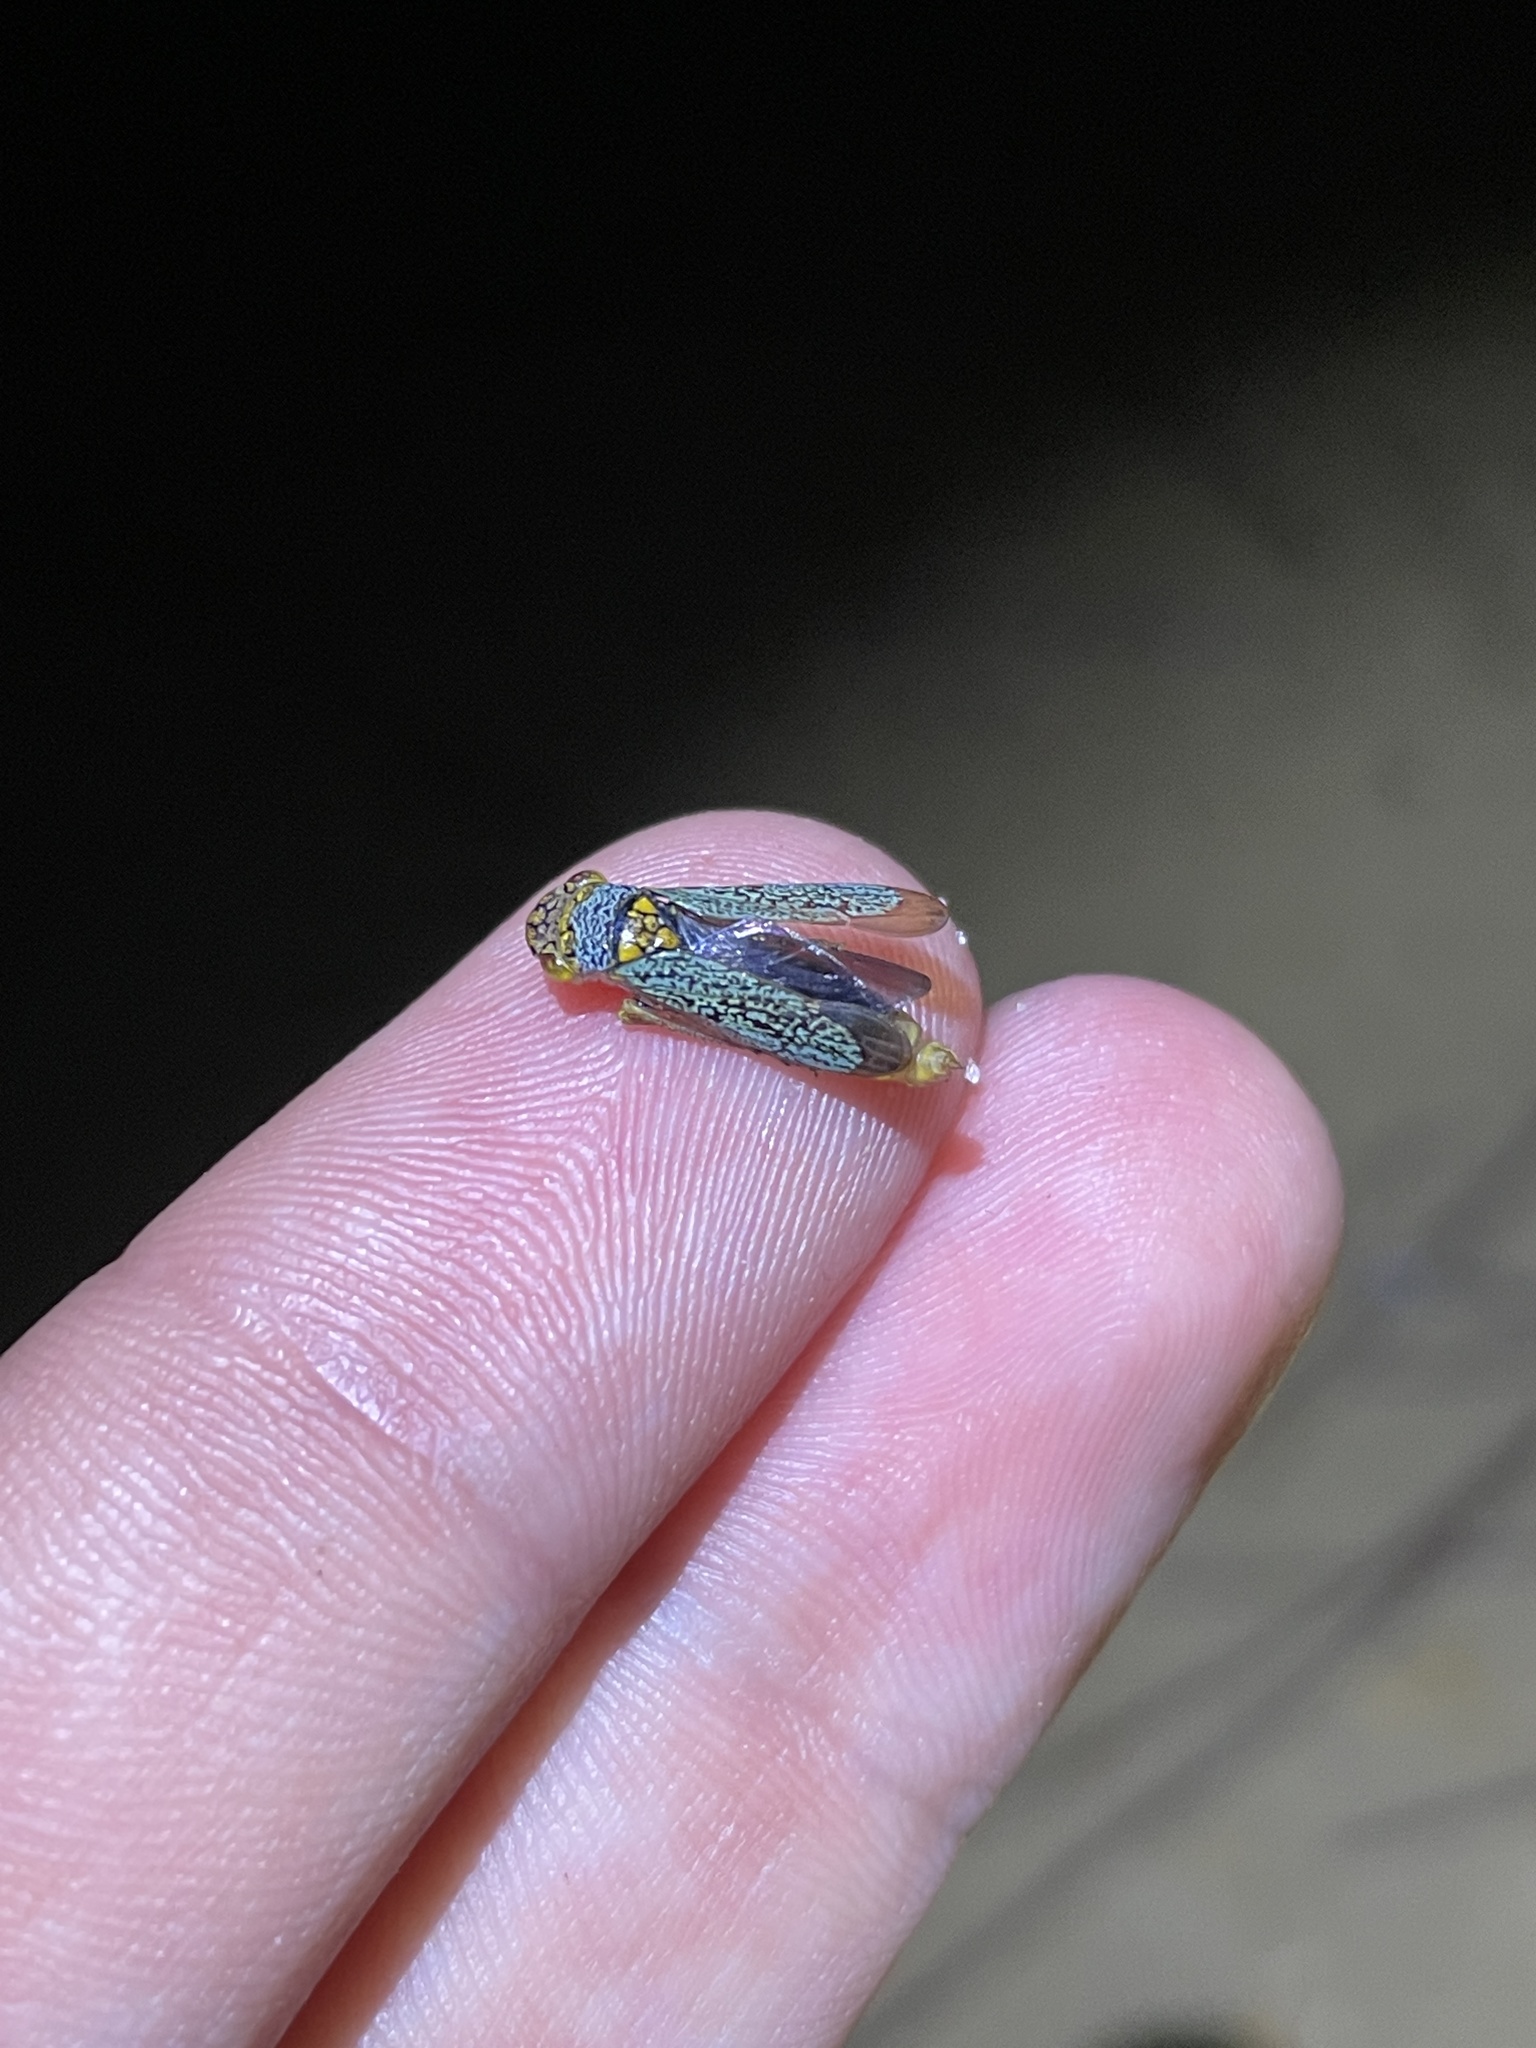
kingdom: Animalia
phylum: Arthropoda
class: Insecta
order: Hemiptera
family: Cicadellidae
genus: Oncometopia
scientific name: Oncometopia orbona
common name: Broad-headed sharpshooter
